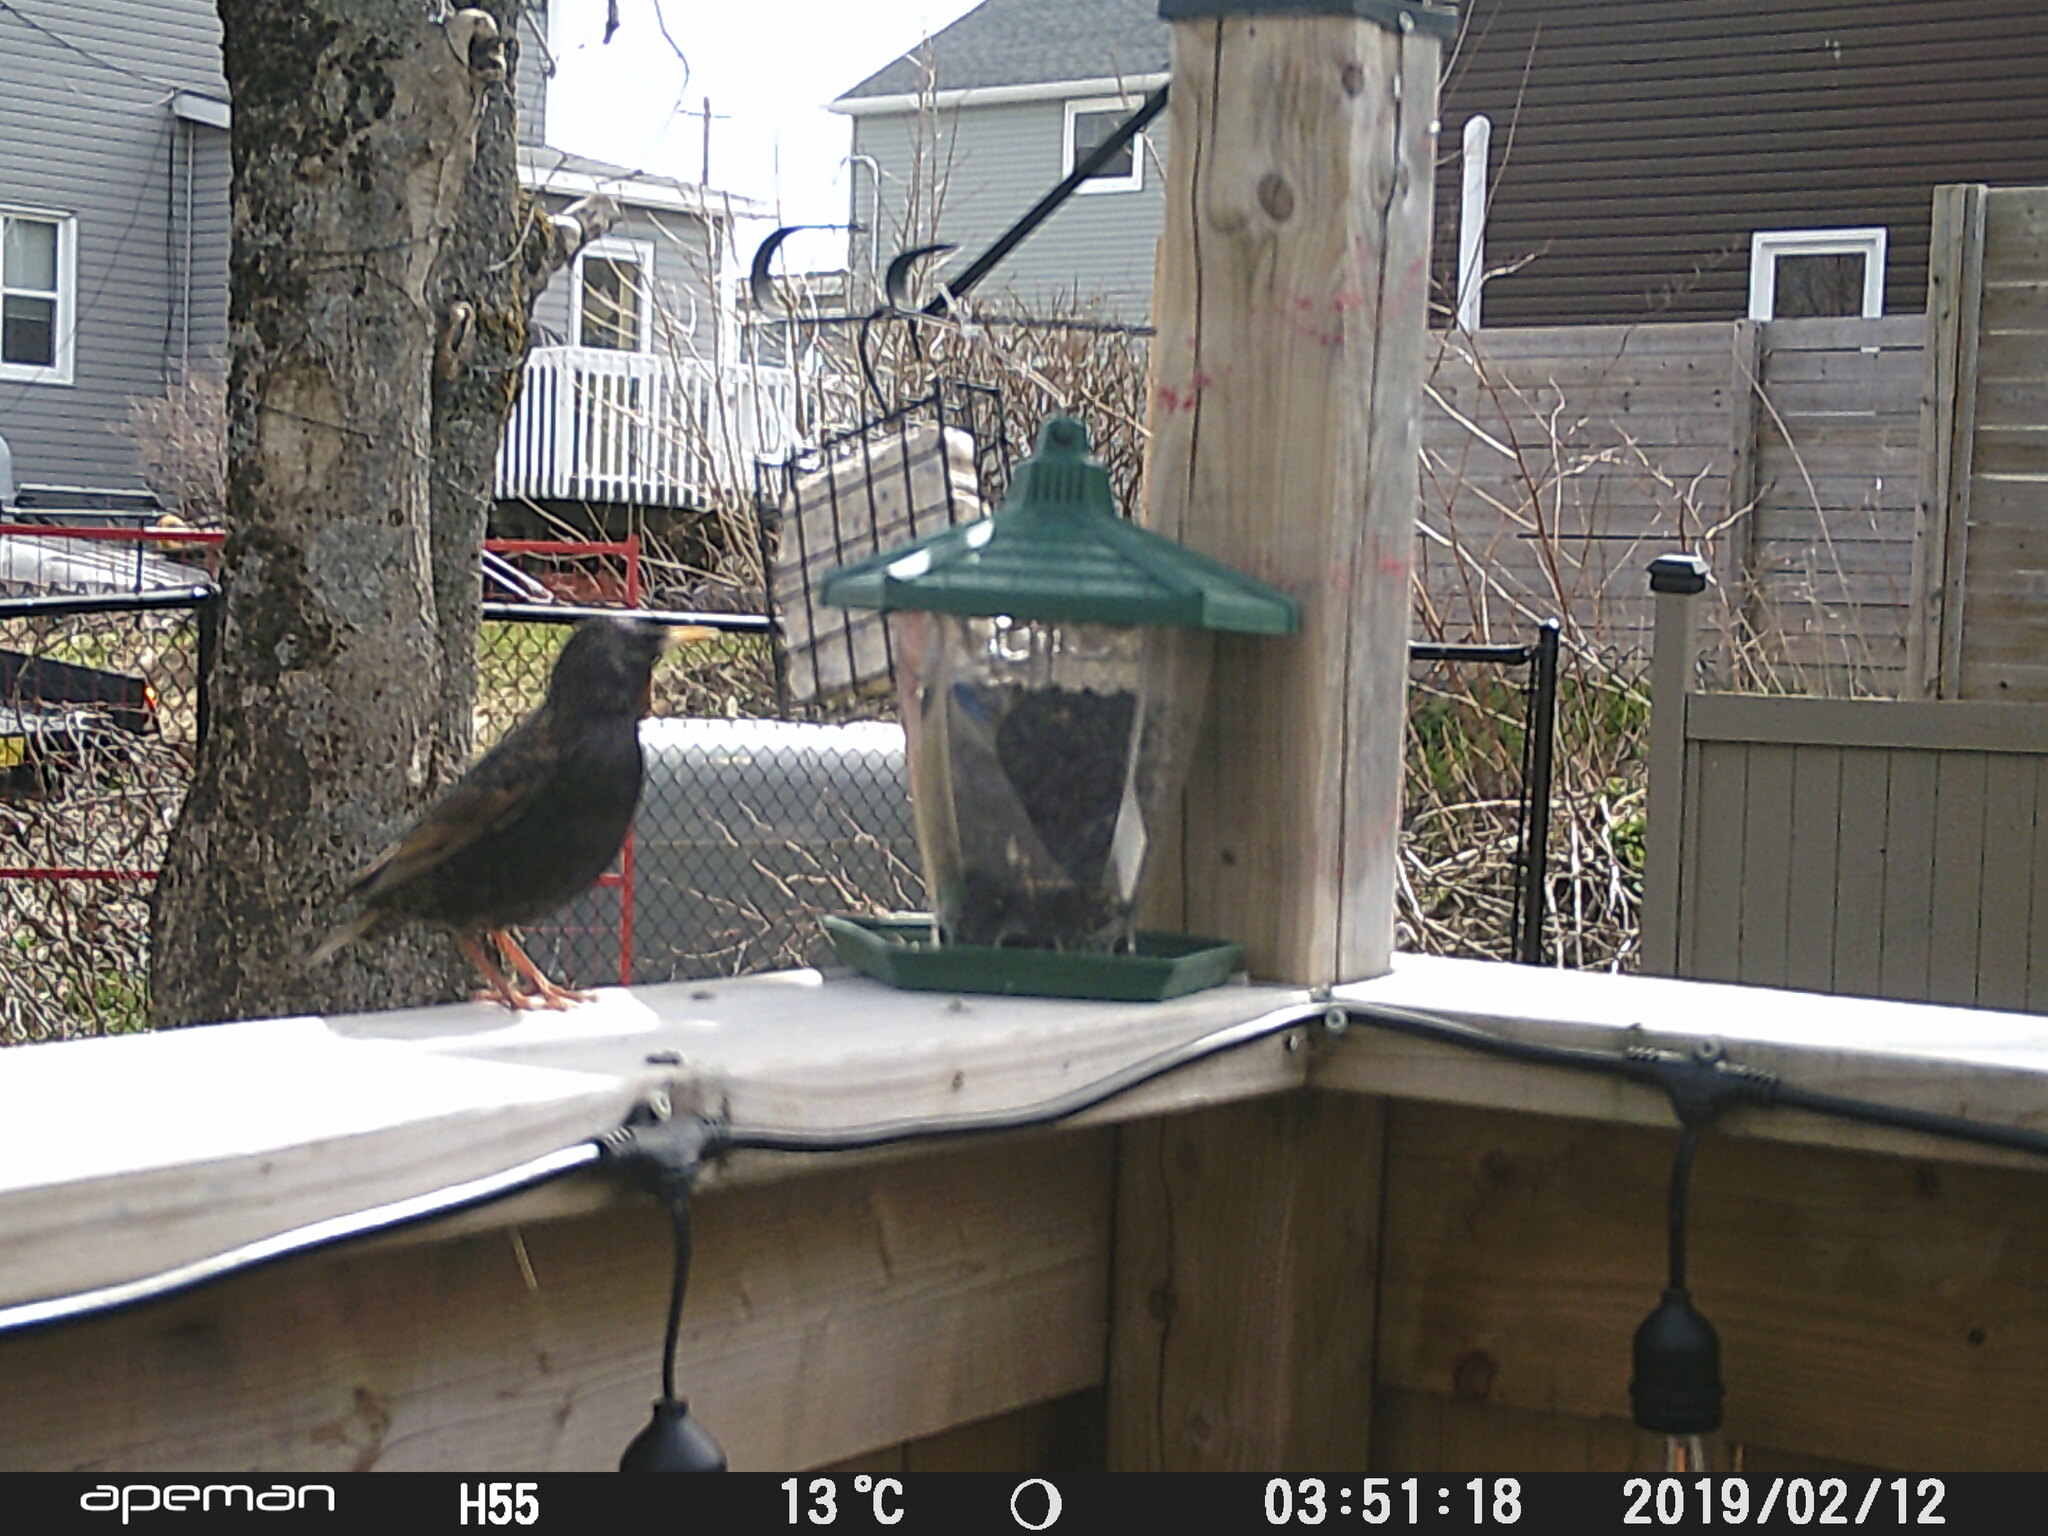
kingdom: Animalia
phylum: Chordata
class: Aves
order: Passeriformes
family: Sturnidae
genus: Sturnus
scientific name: Sturnus vulgaris
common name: Common starling
